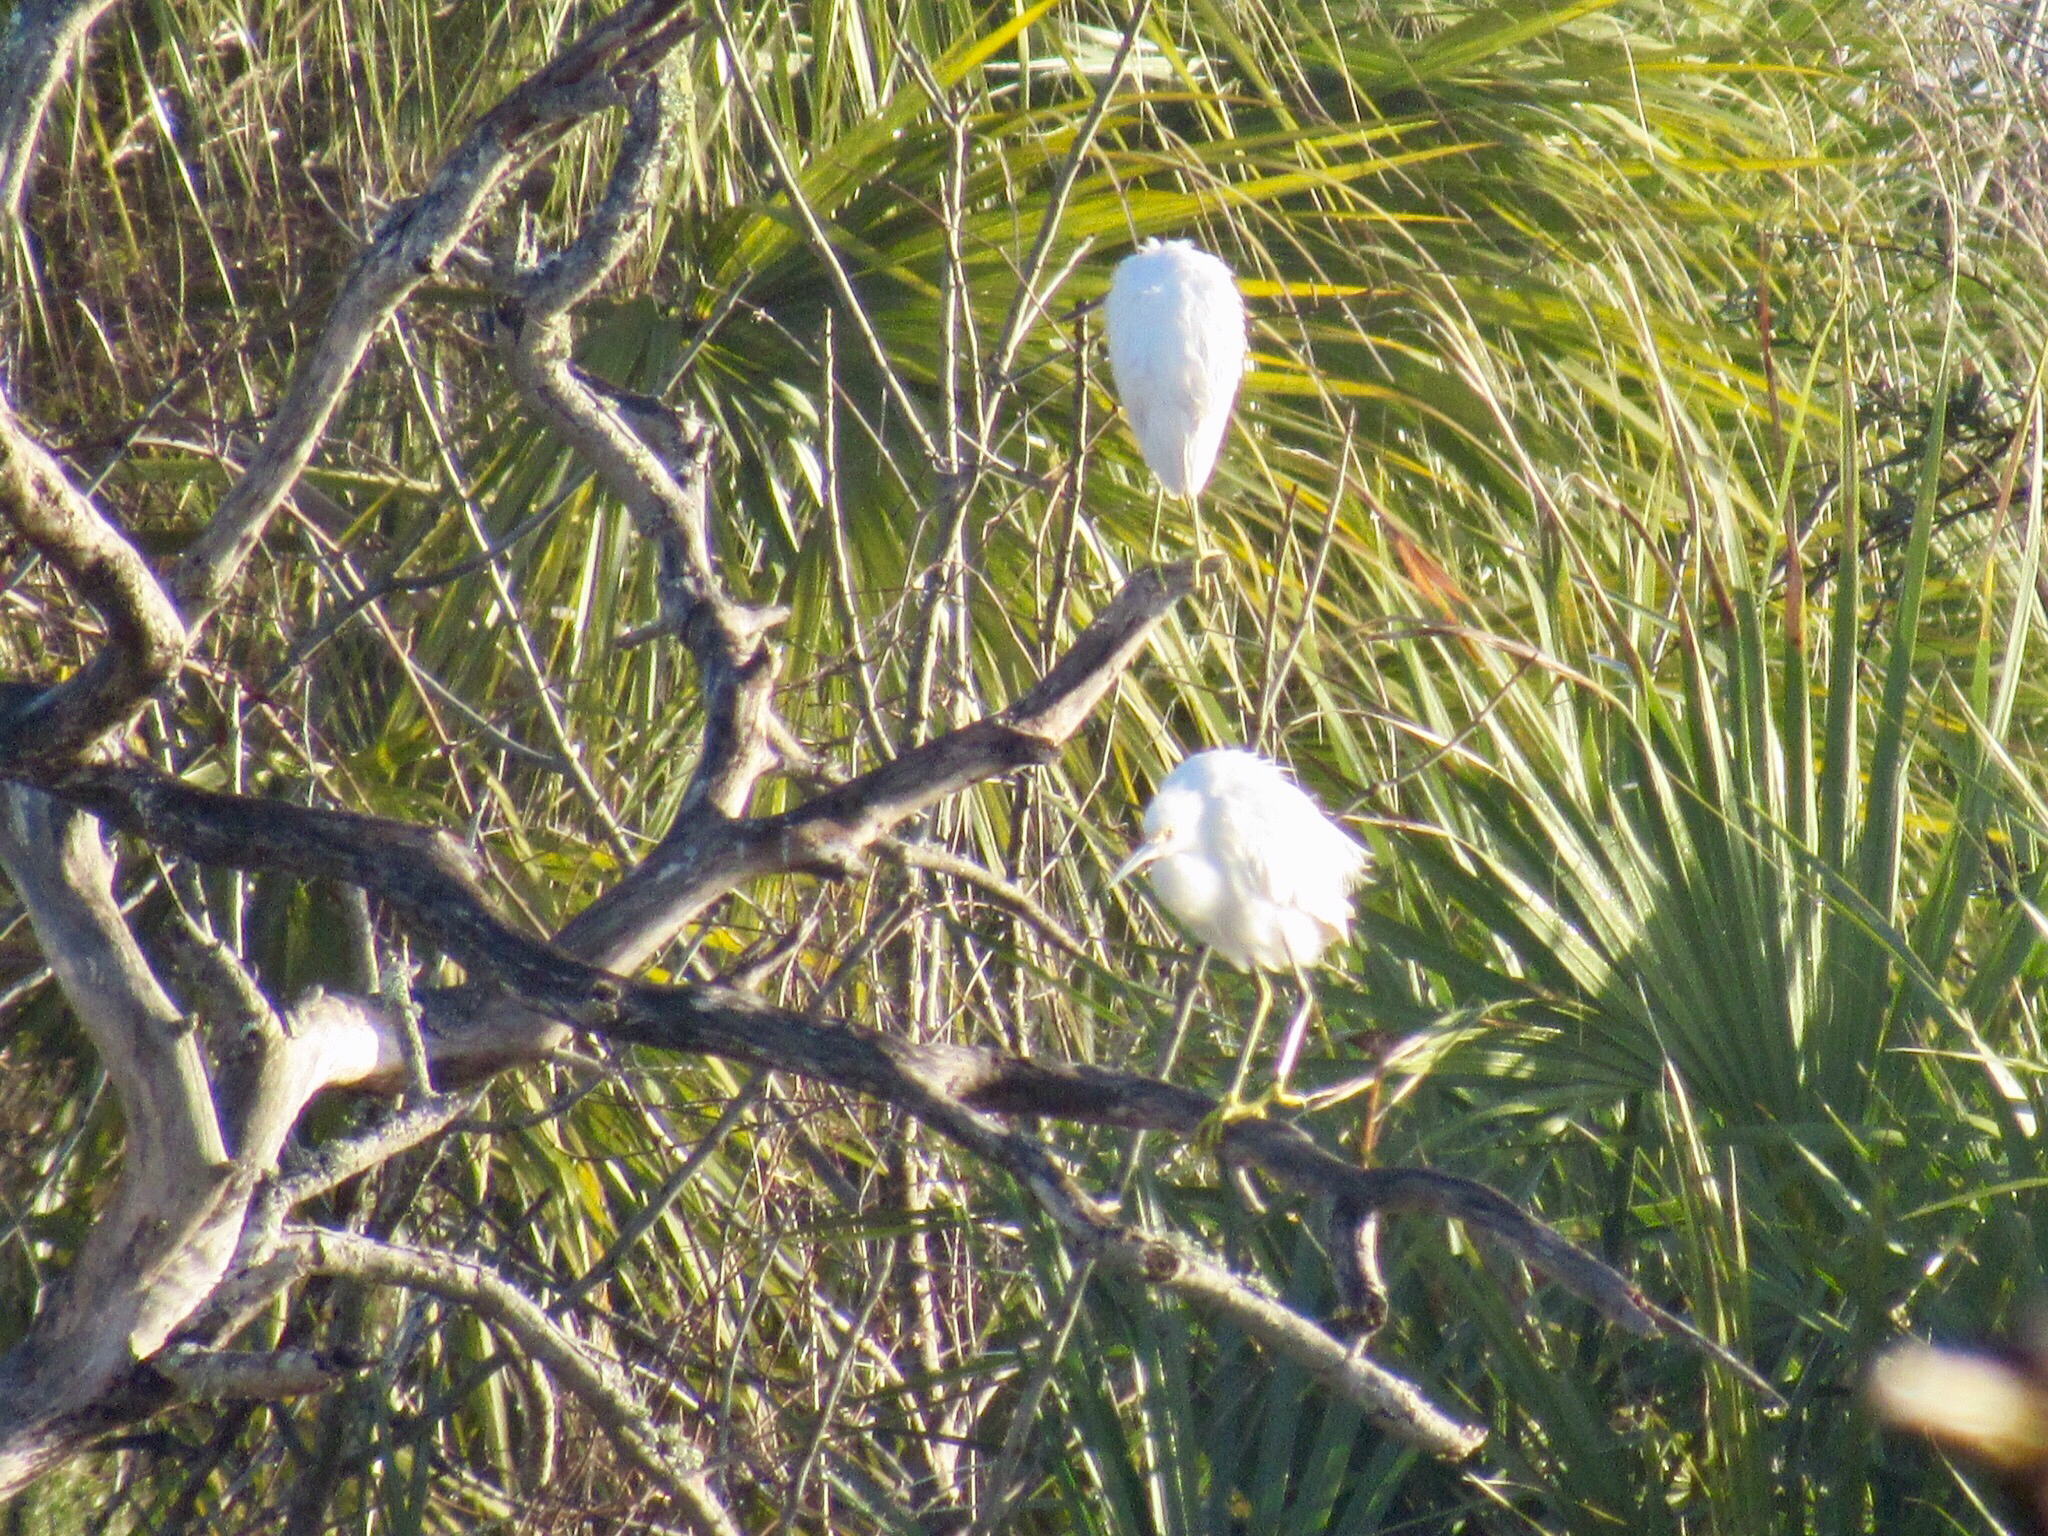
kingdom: Animalia
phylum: Chordata
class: Aves
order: Pelecaniformes
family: Ardeidae
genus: Egretta
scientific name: Egretta thula
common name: Snowy egret
